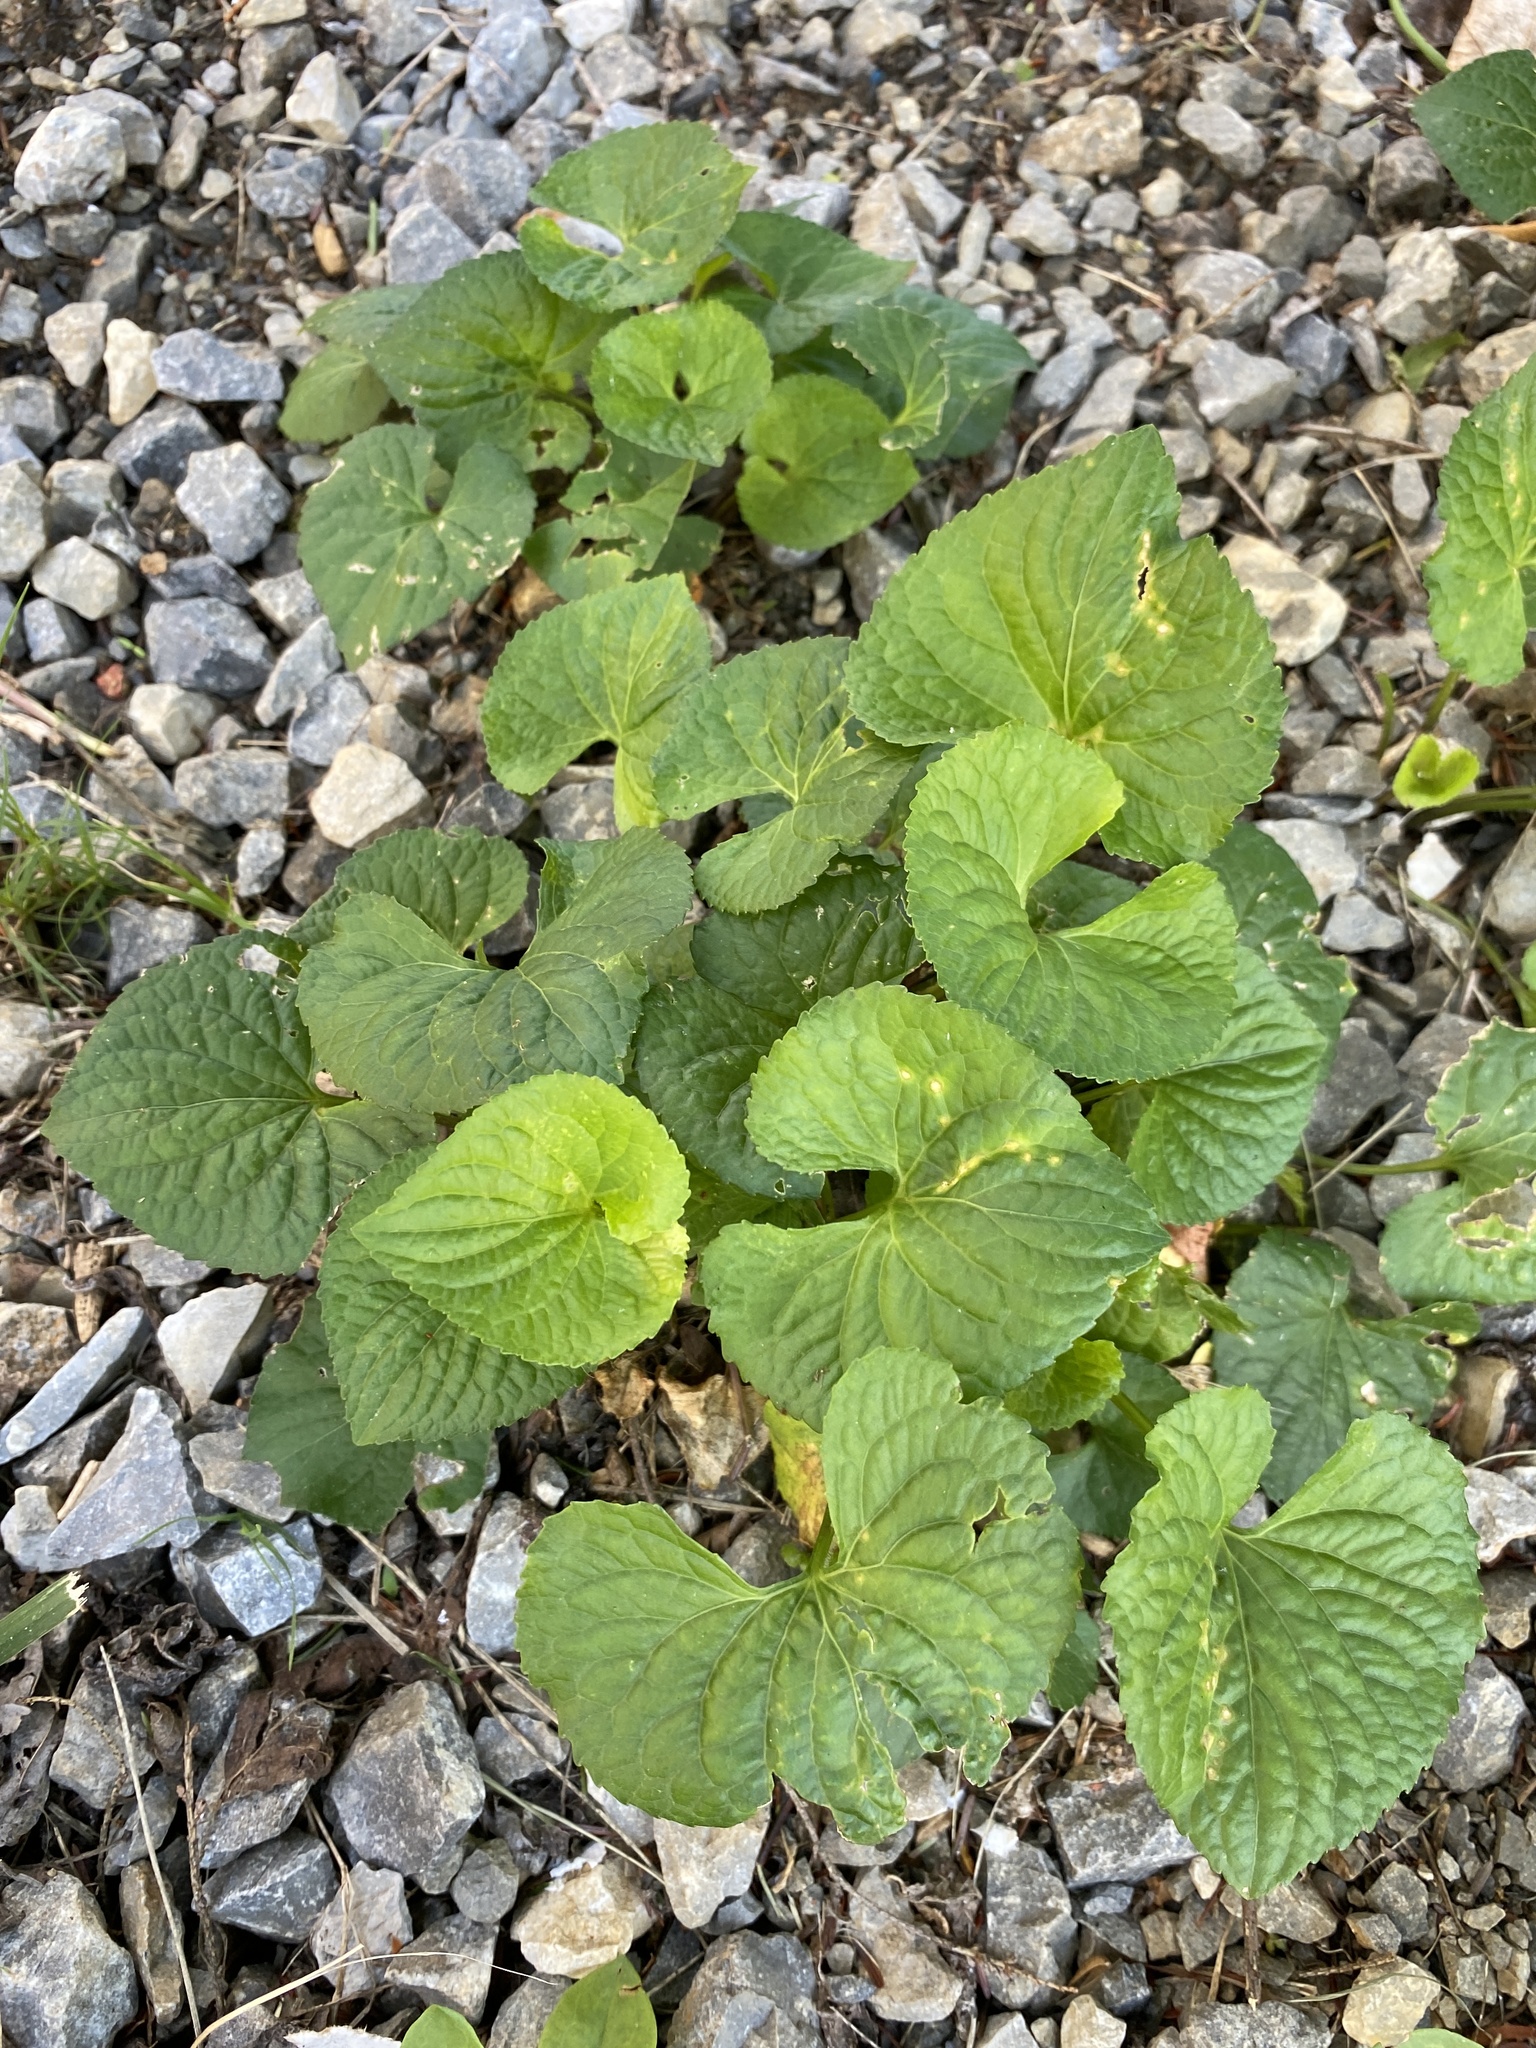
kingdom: Plantae
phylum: Tracheophyta
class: Magnoliopsida
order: Malpighiales
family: Violaceae
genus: Viola
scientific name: Viola communis
